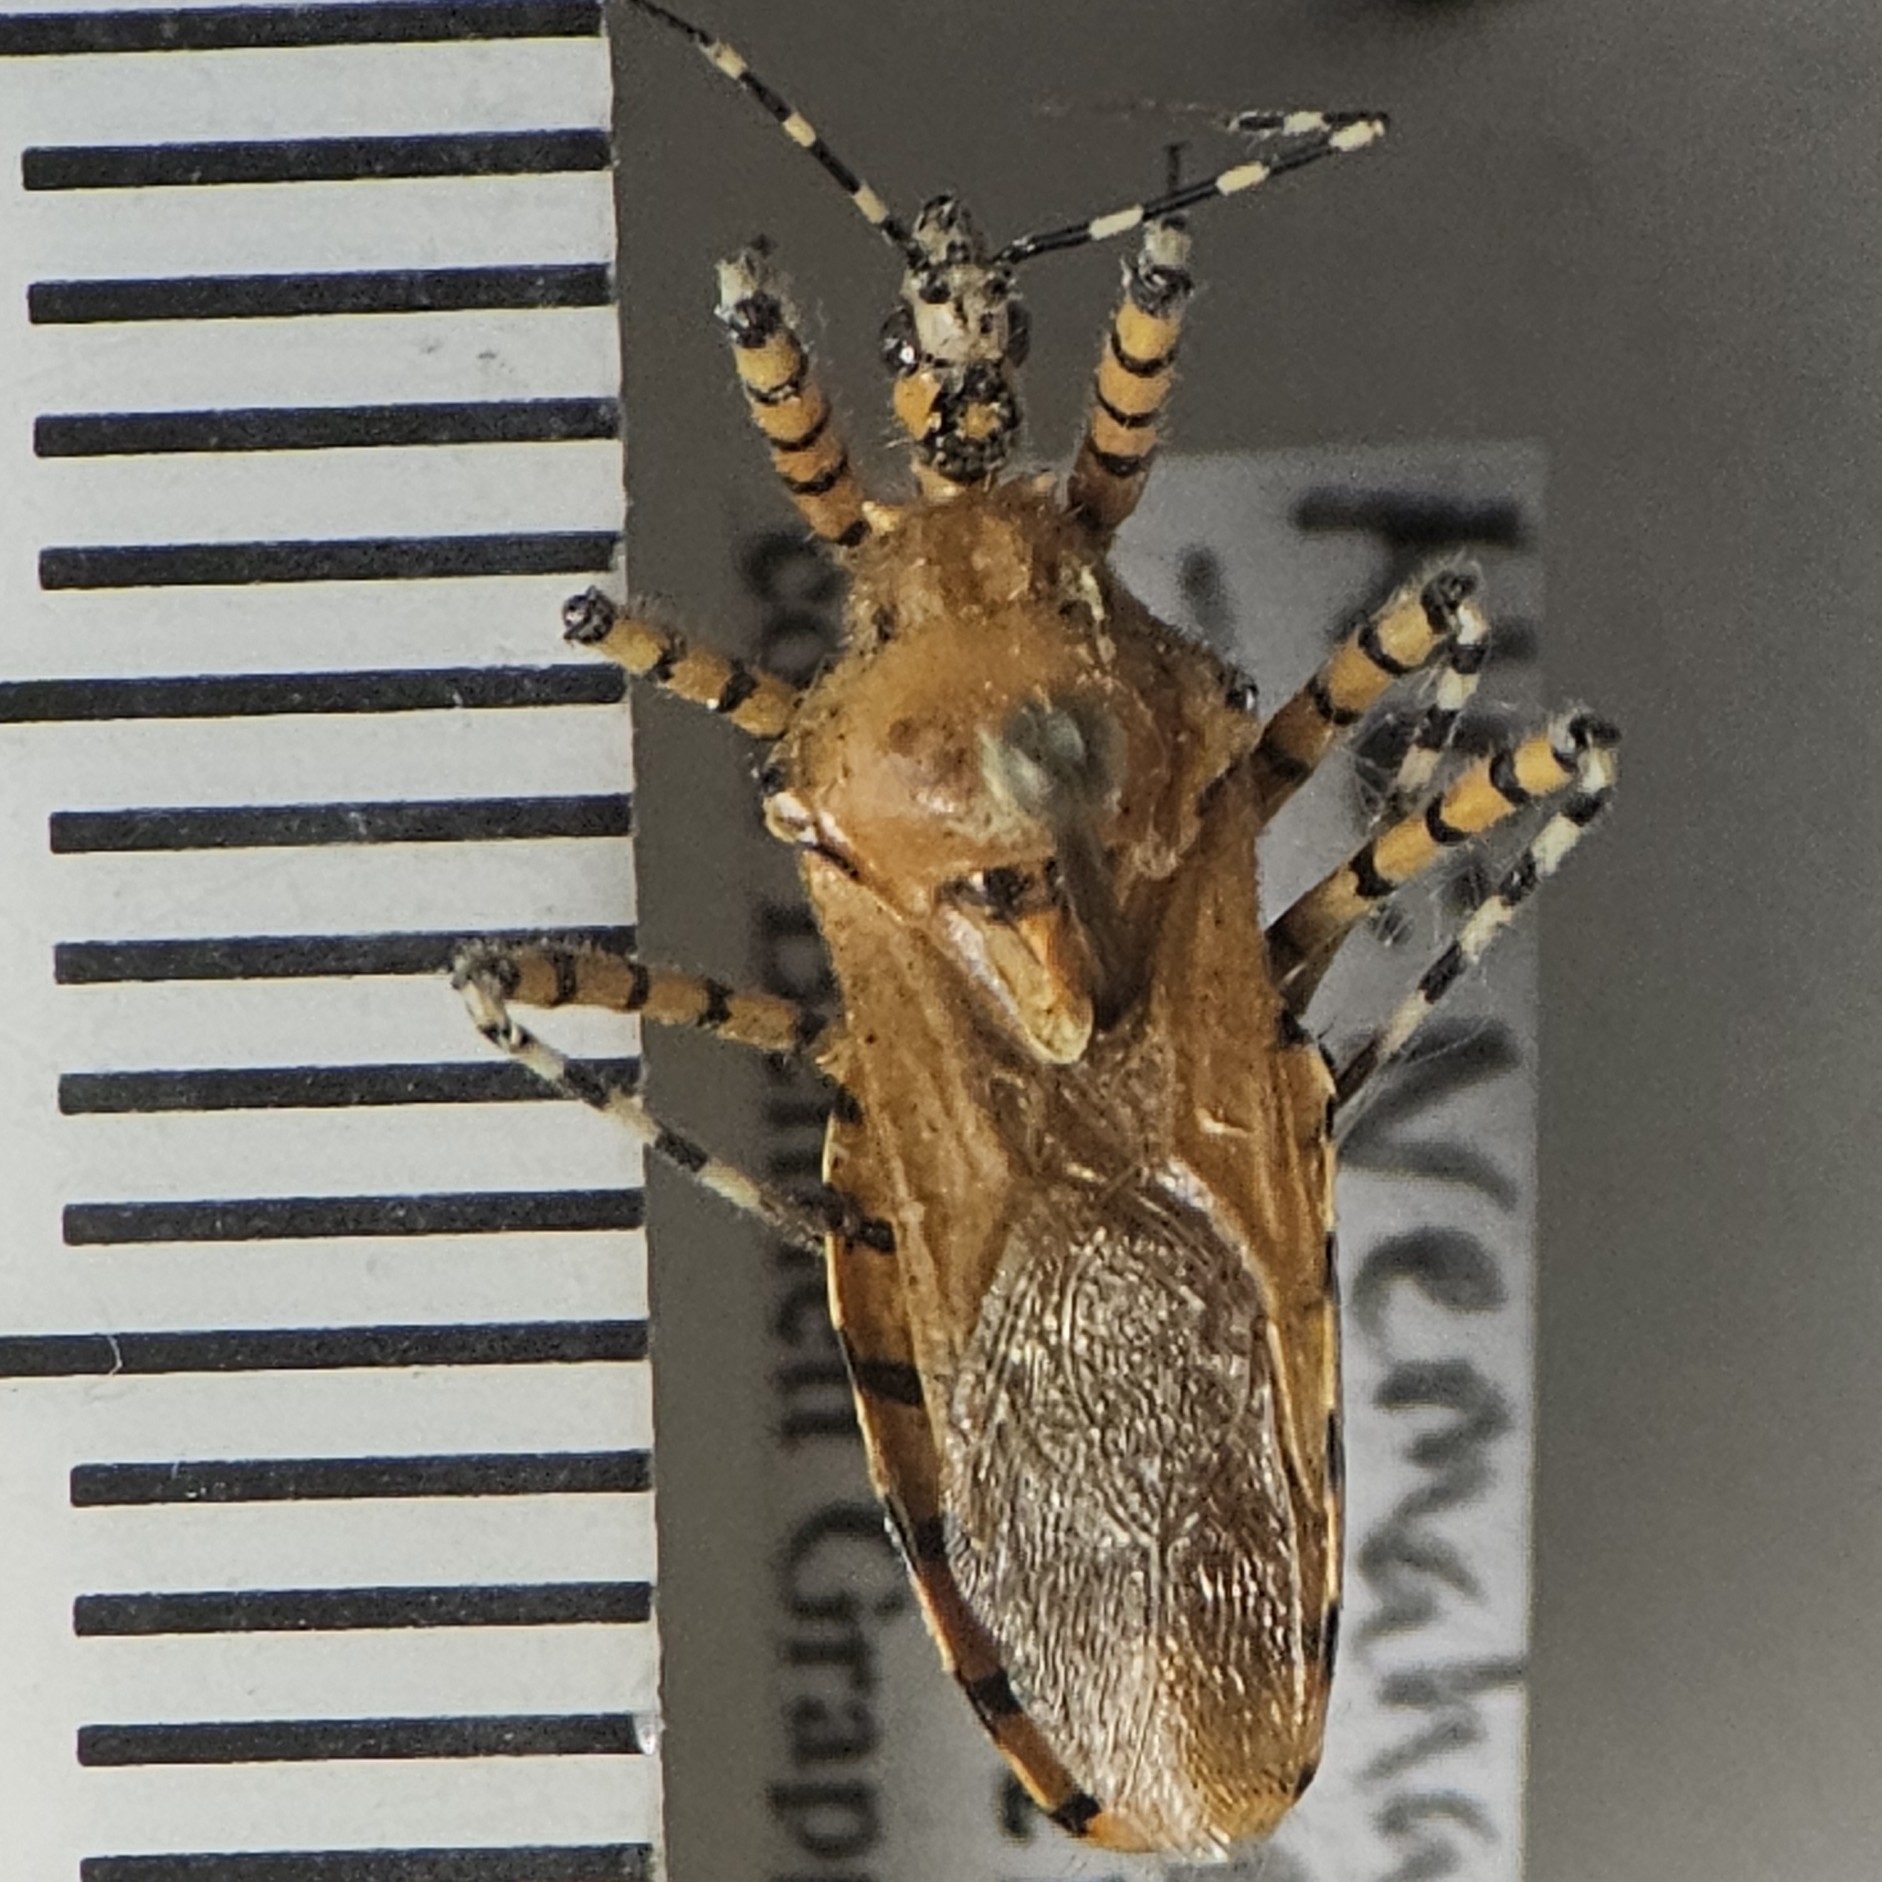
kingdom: Animalia
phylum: Arthropoda
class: Insecta
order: Hemiptera
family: Reduviidae
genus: Pselliopus
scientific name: Pselliopus barberi
